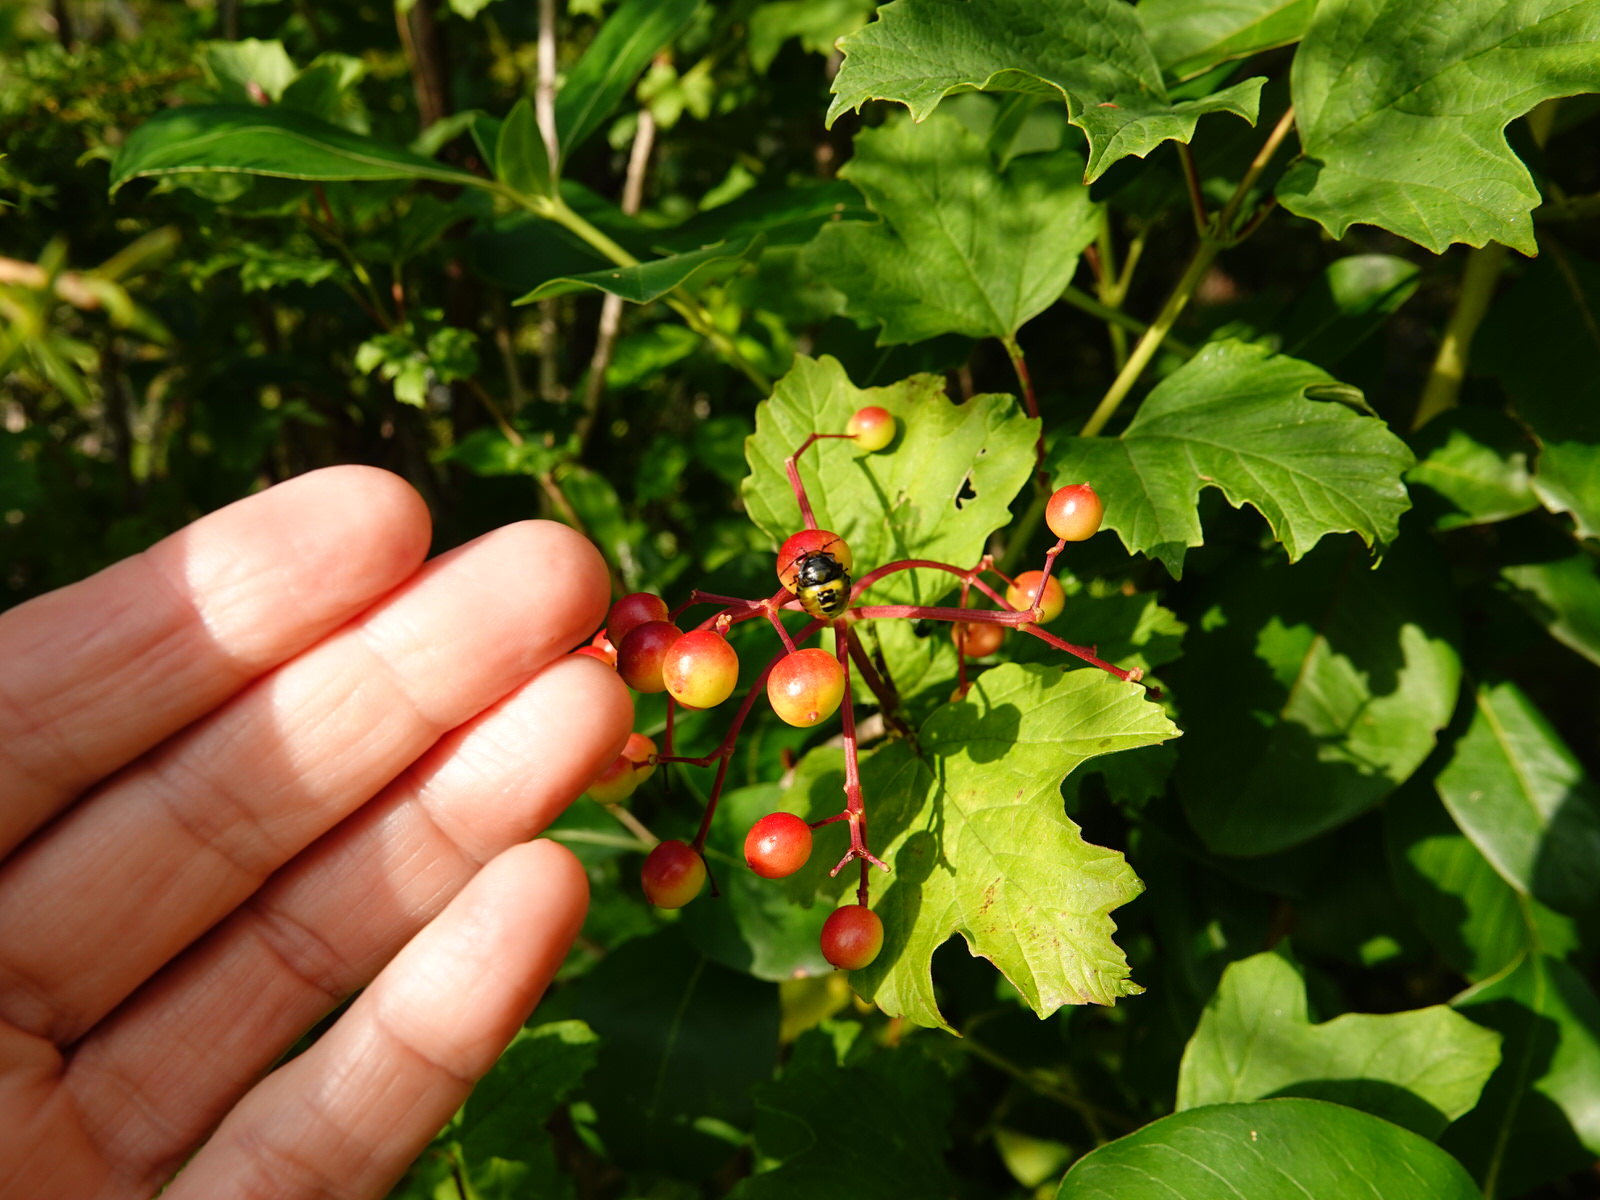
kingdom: Animalia
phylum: Arthropoda
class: Insecta
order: Hemiptera
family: Pentatomidae
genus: Glaucias
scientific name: Glaucias amyota
